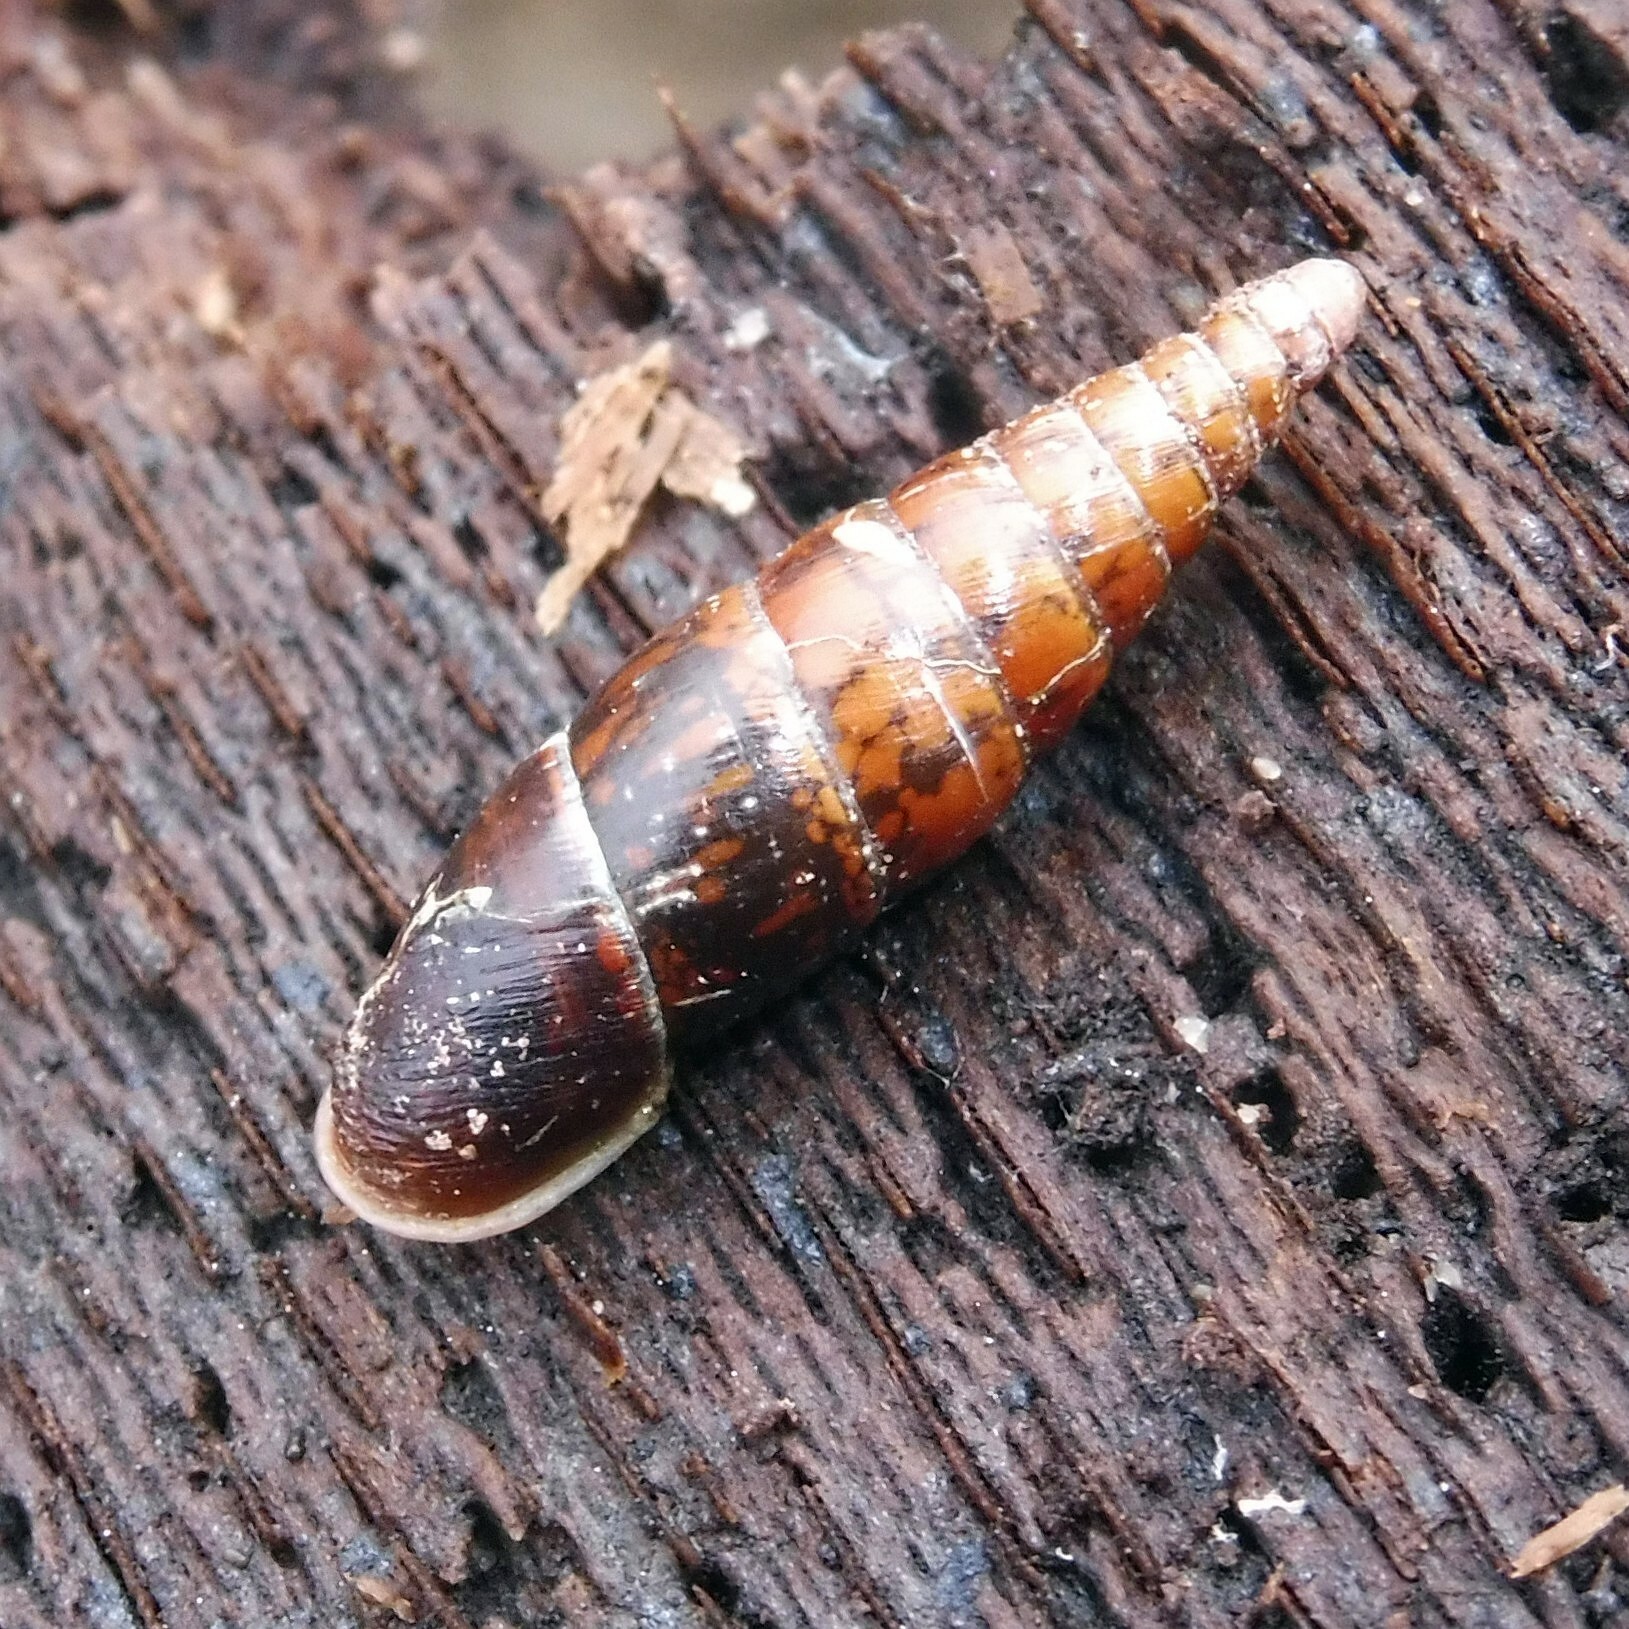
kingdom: Animalia
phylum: Mollusca
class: Gastropoda
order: Stylommatophora
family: Clausiliidae
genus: Cochlodina
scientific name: Cochlodina laminata
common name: Plaited door snail
